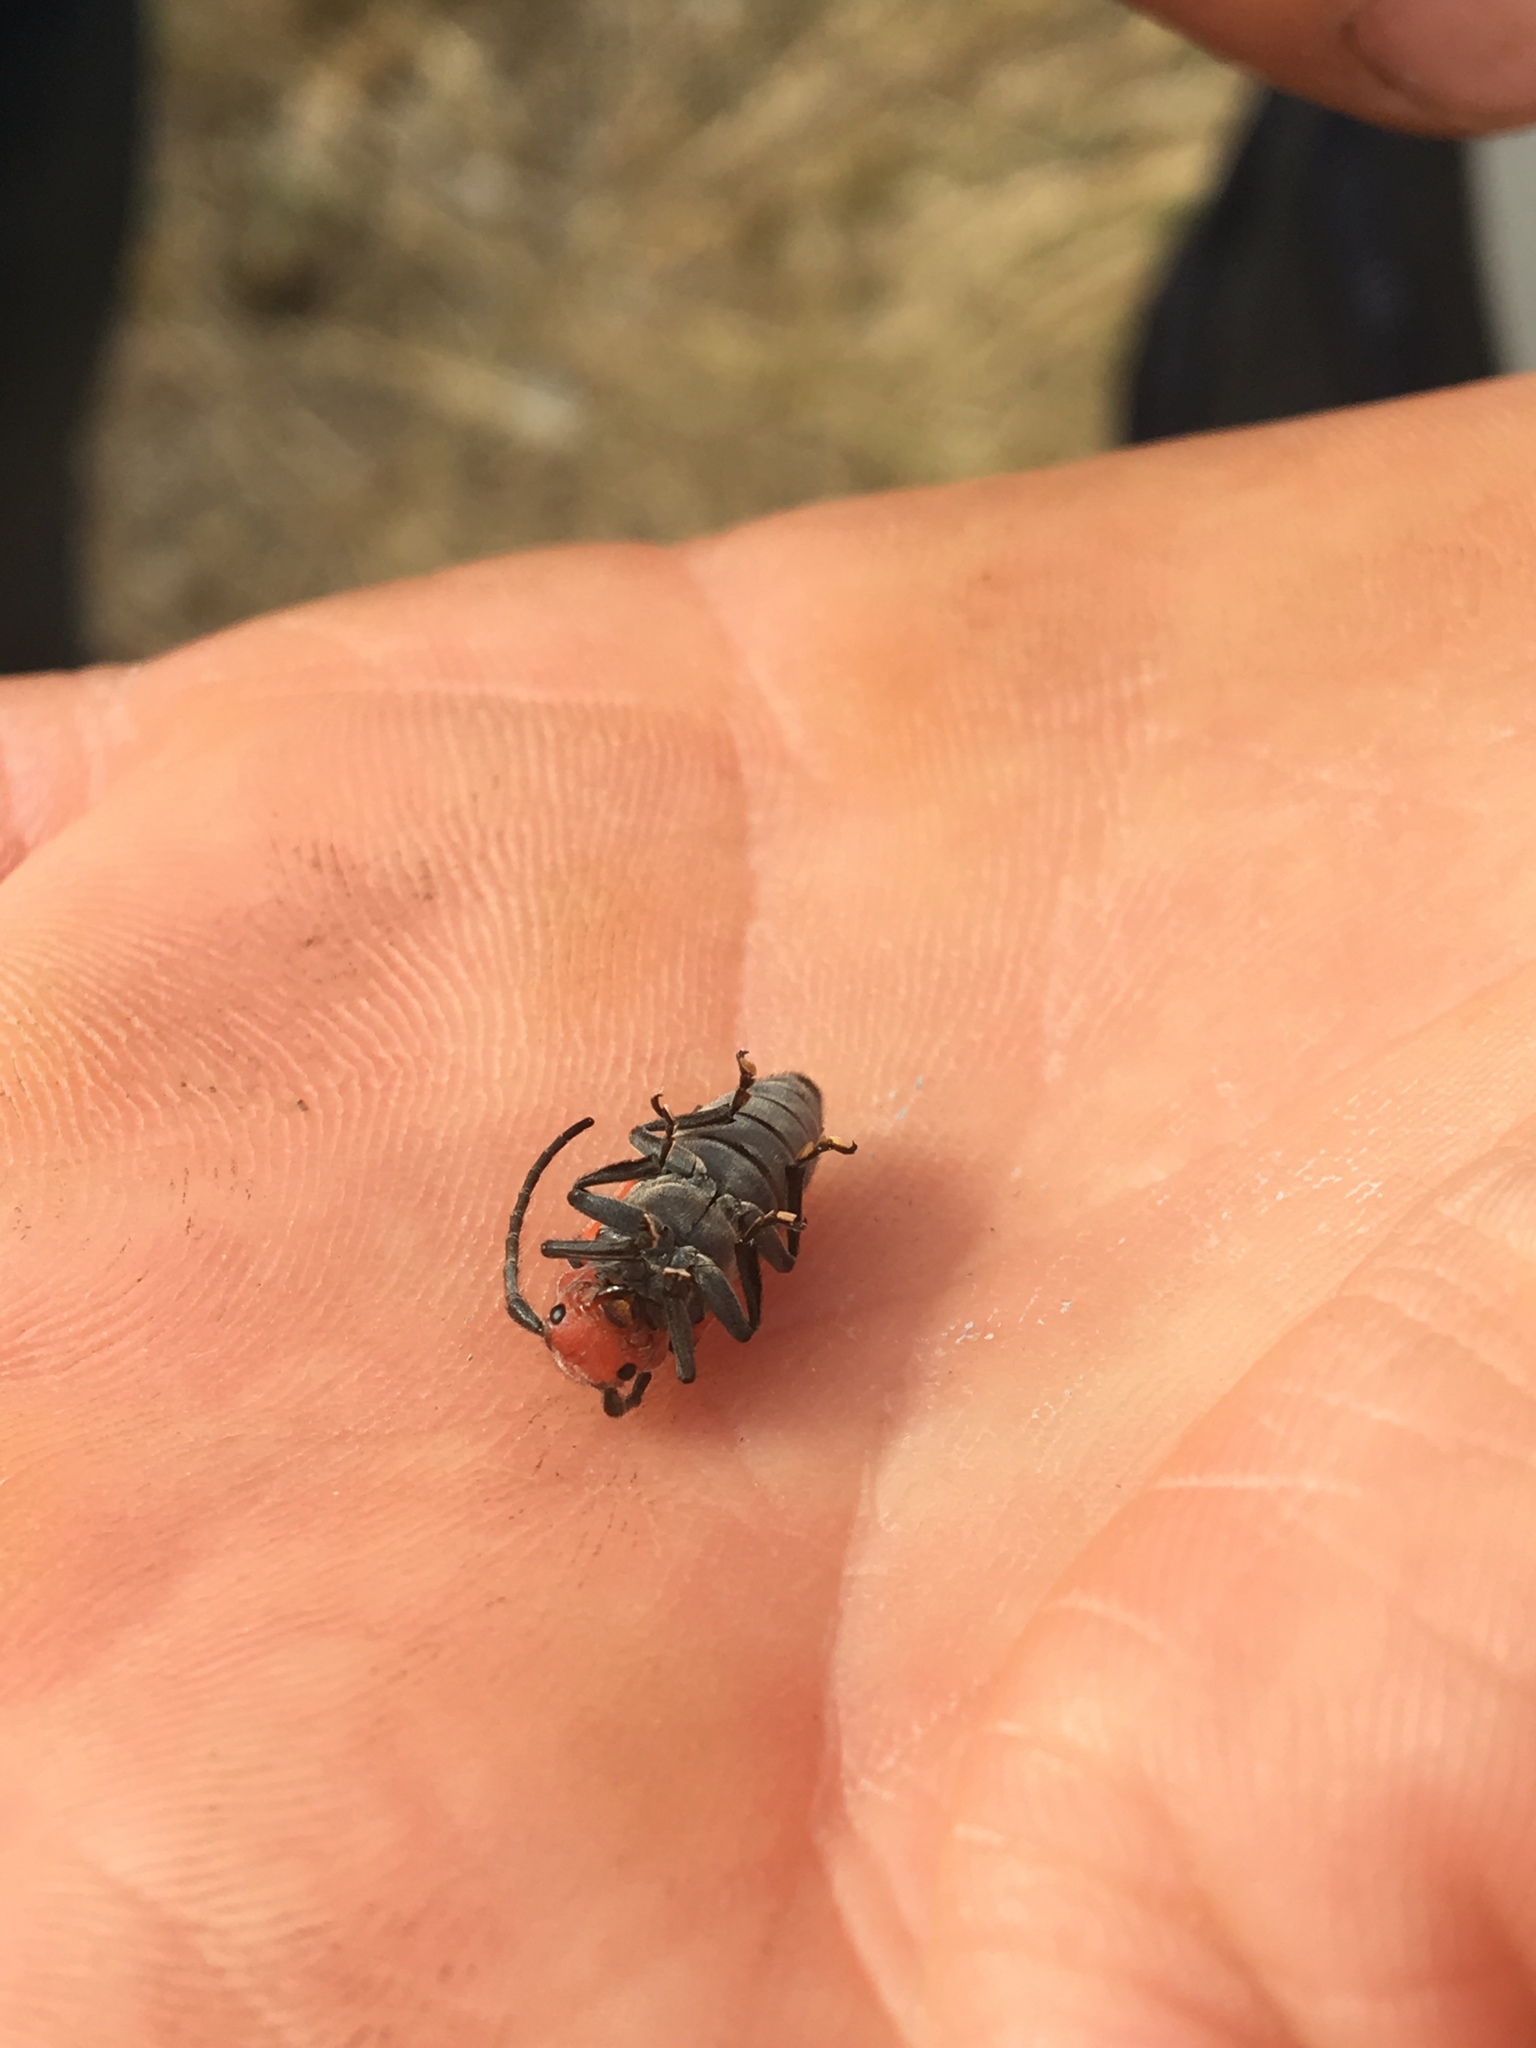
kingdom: Animalia
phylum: Arthropoda
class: Insecta
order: Coleoptera
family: Cerambycidae
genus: Tetraopes
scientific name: Tetraopes tetrophthalmus
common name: Red milkweed beetle
